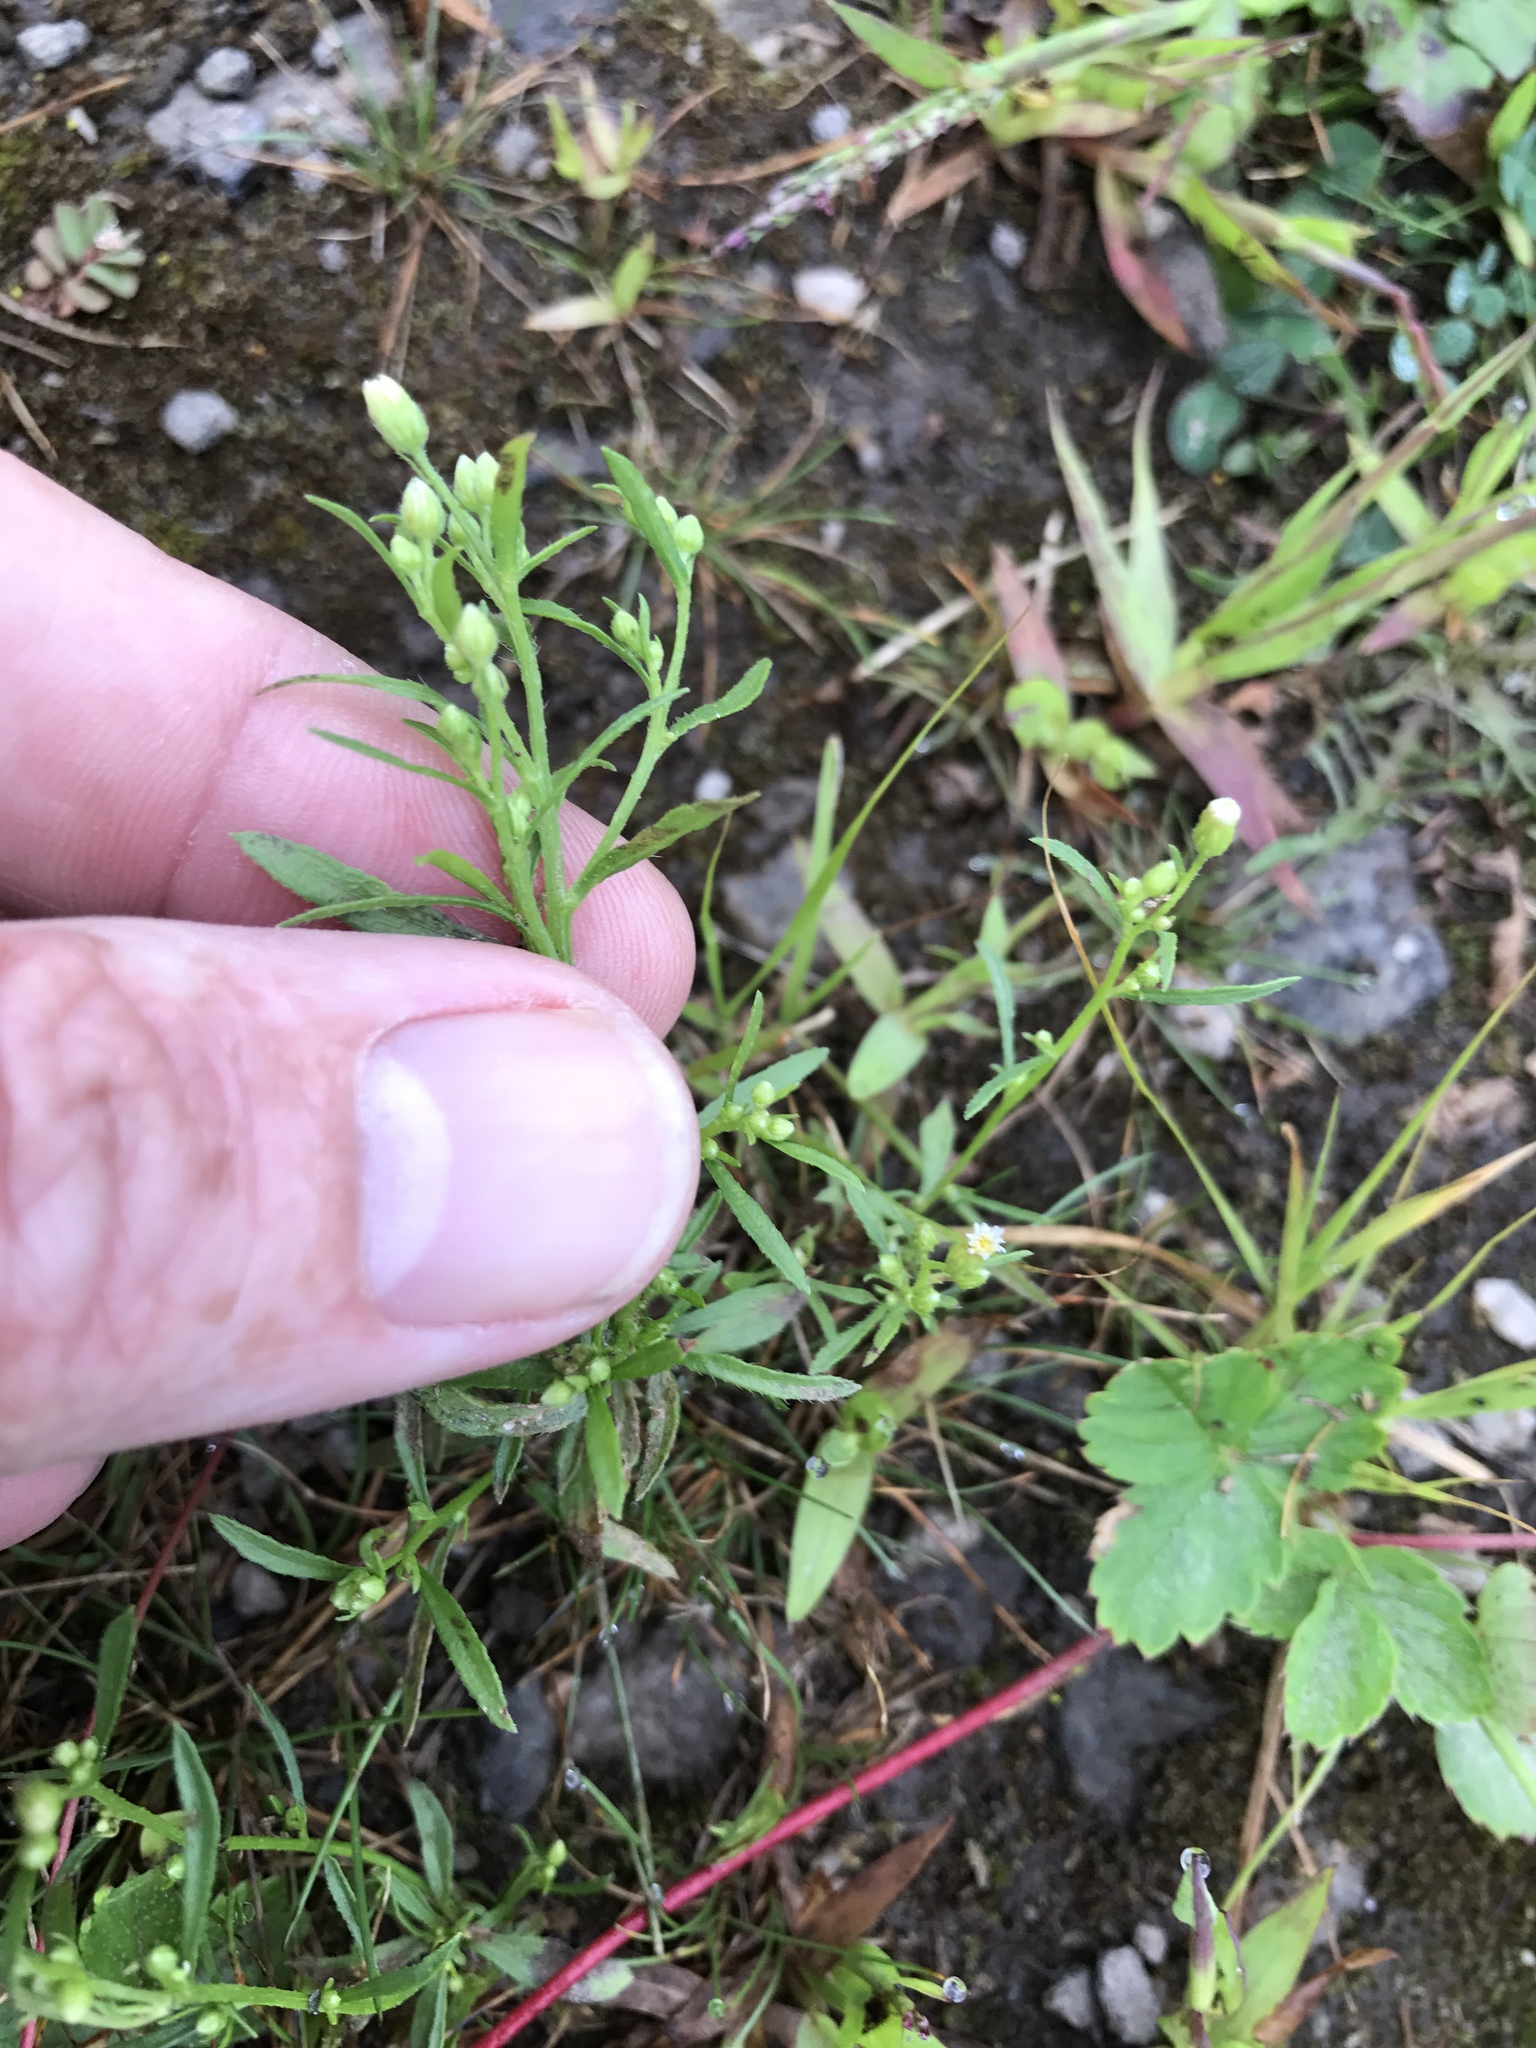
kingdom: Plantae
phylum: Tracheophyta
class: Magnoliopsida
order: Asterales
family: Asteraceae
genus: Erigeron
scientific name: Erigeron canadensis
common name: Canadian fleabane
